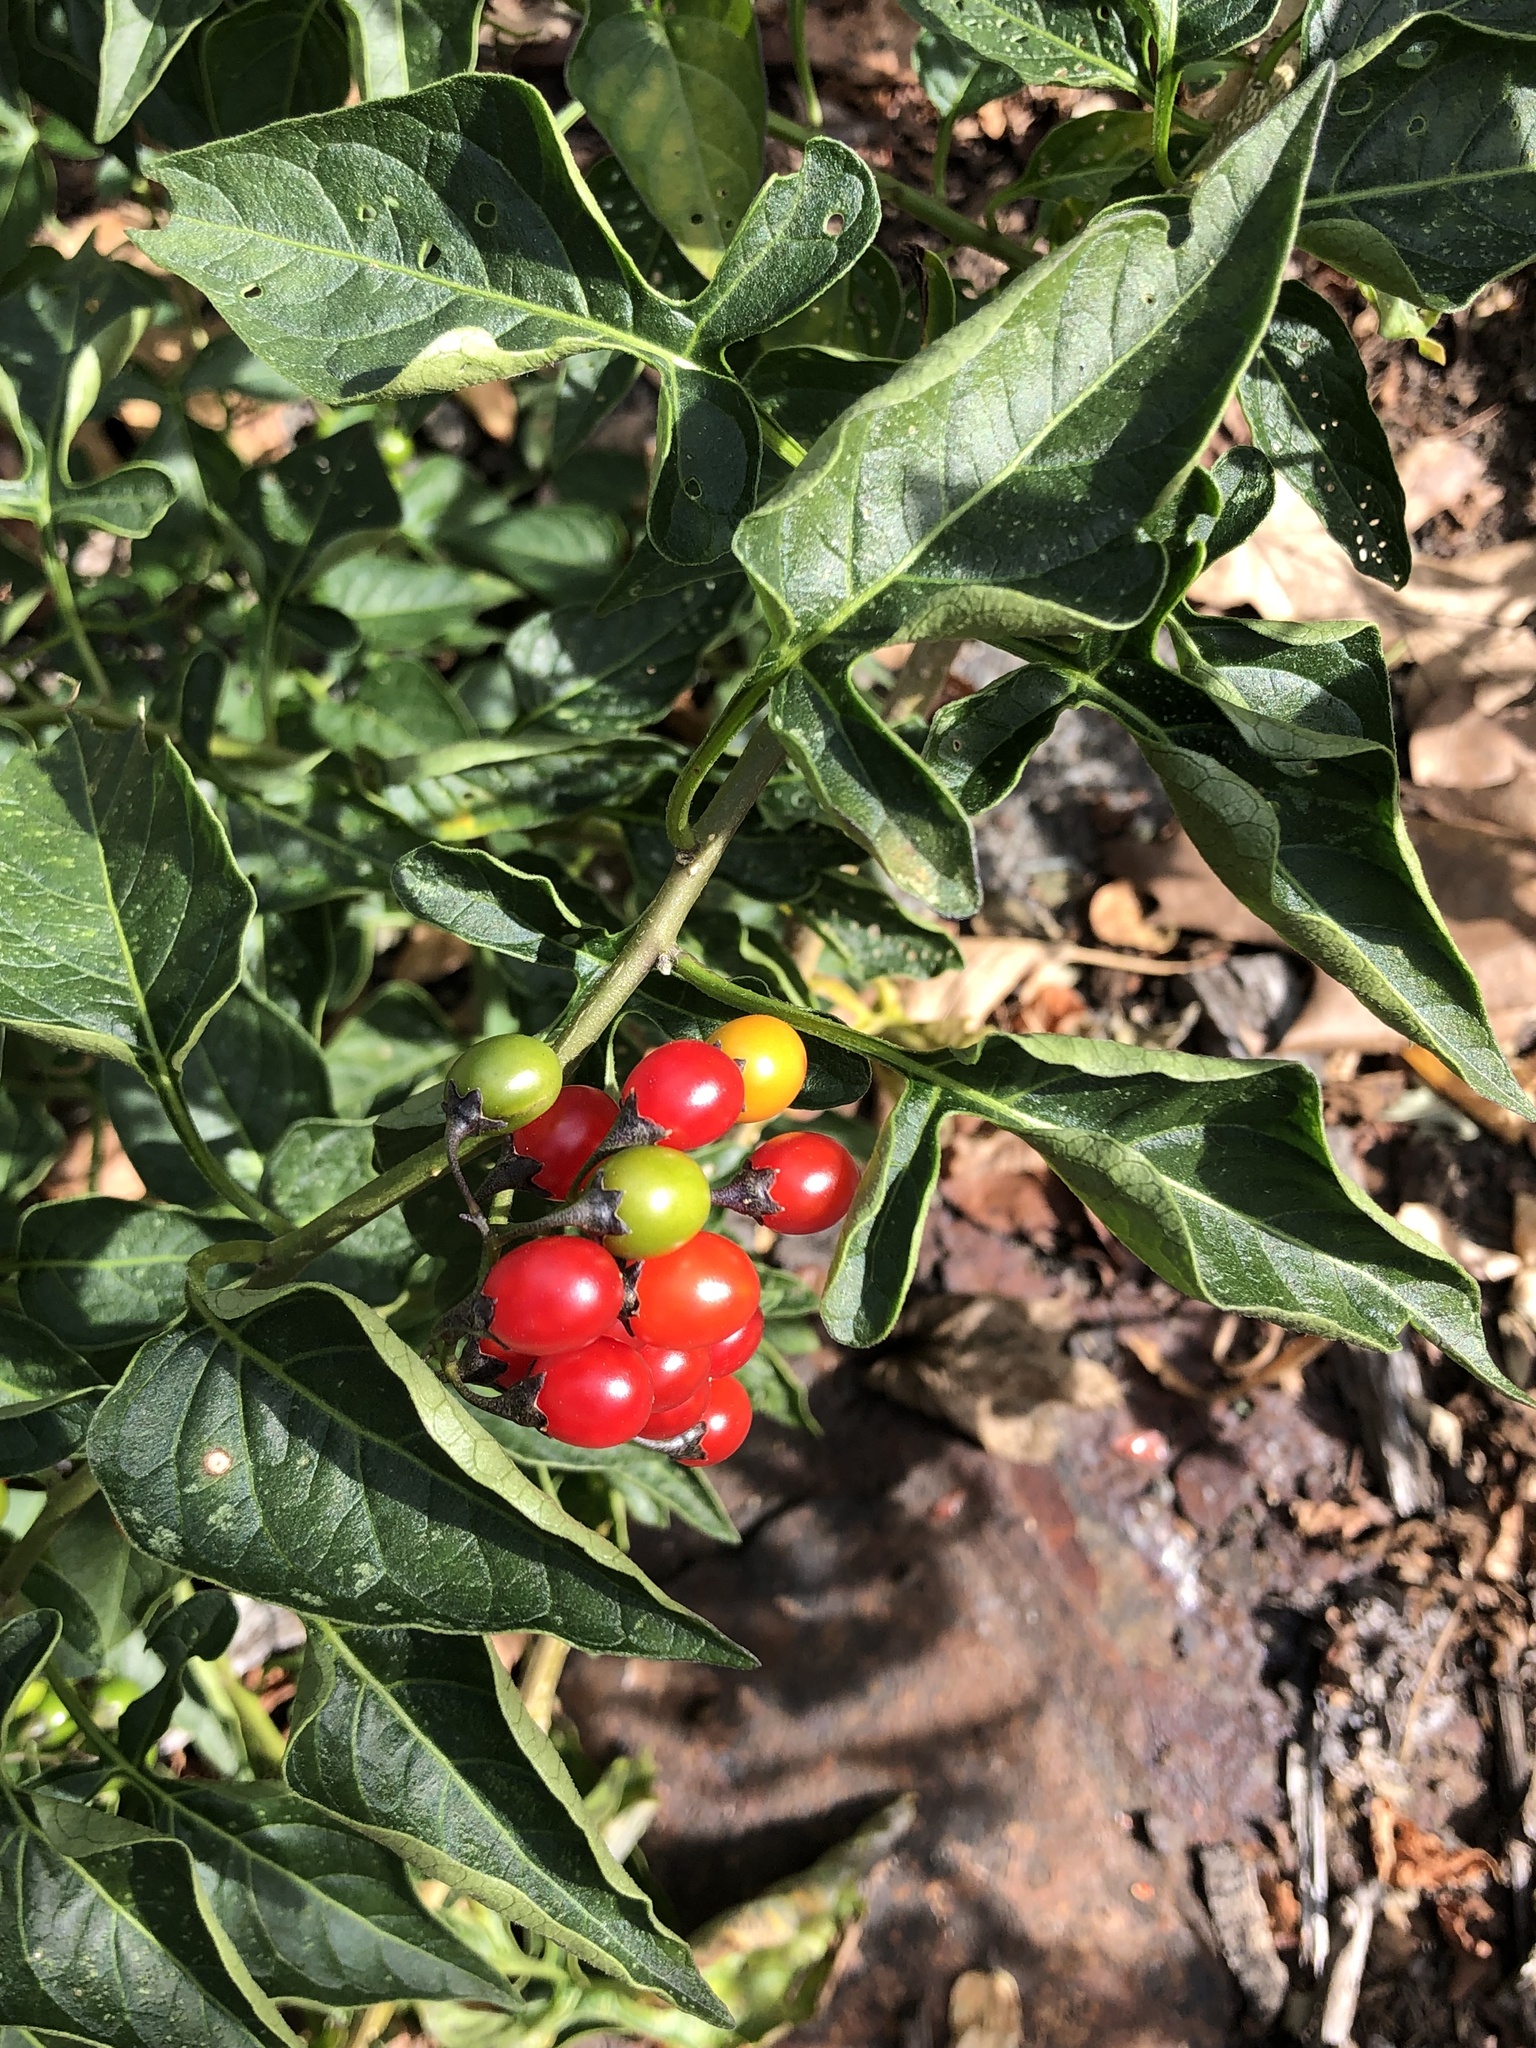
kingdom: Plantae
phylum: Tracheophyta
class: Magnoliopsida
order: Solanales
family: Solanaceae
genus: Solanum
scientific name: Solanum dulcamara
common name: Climbing nightshade
